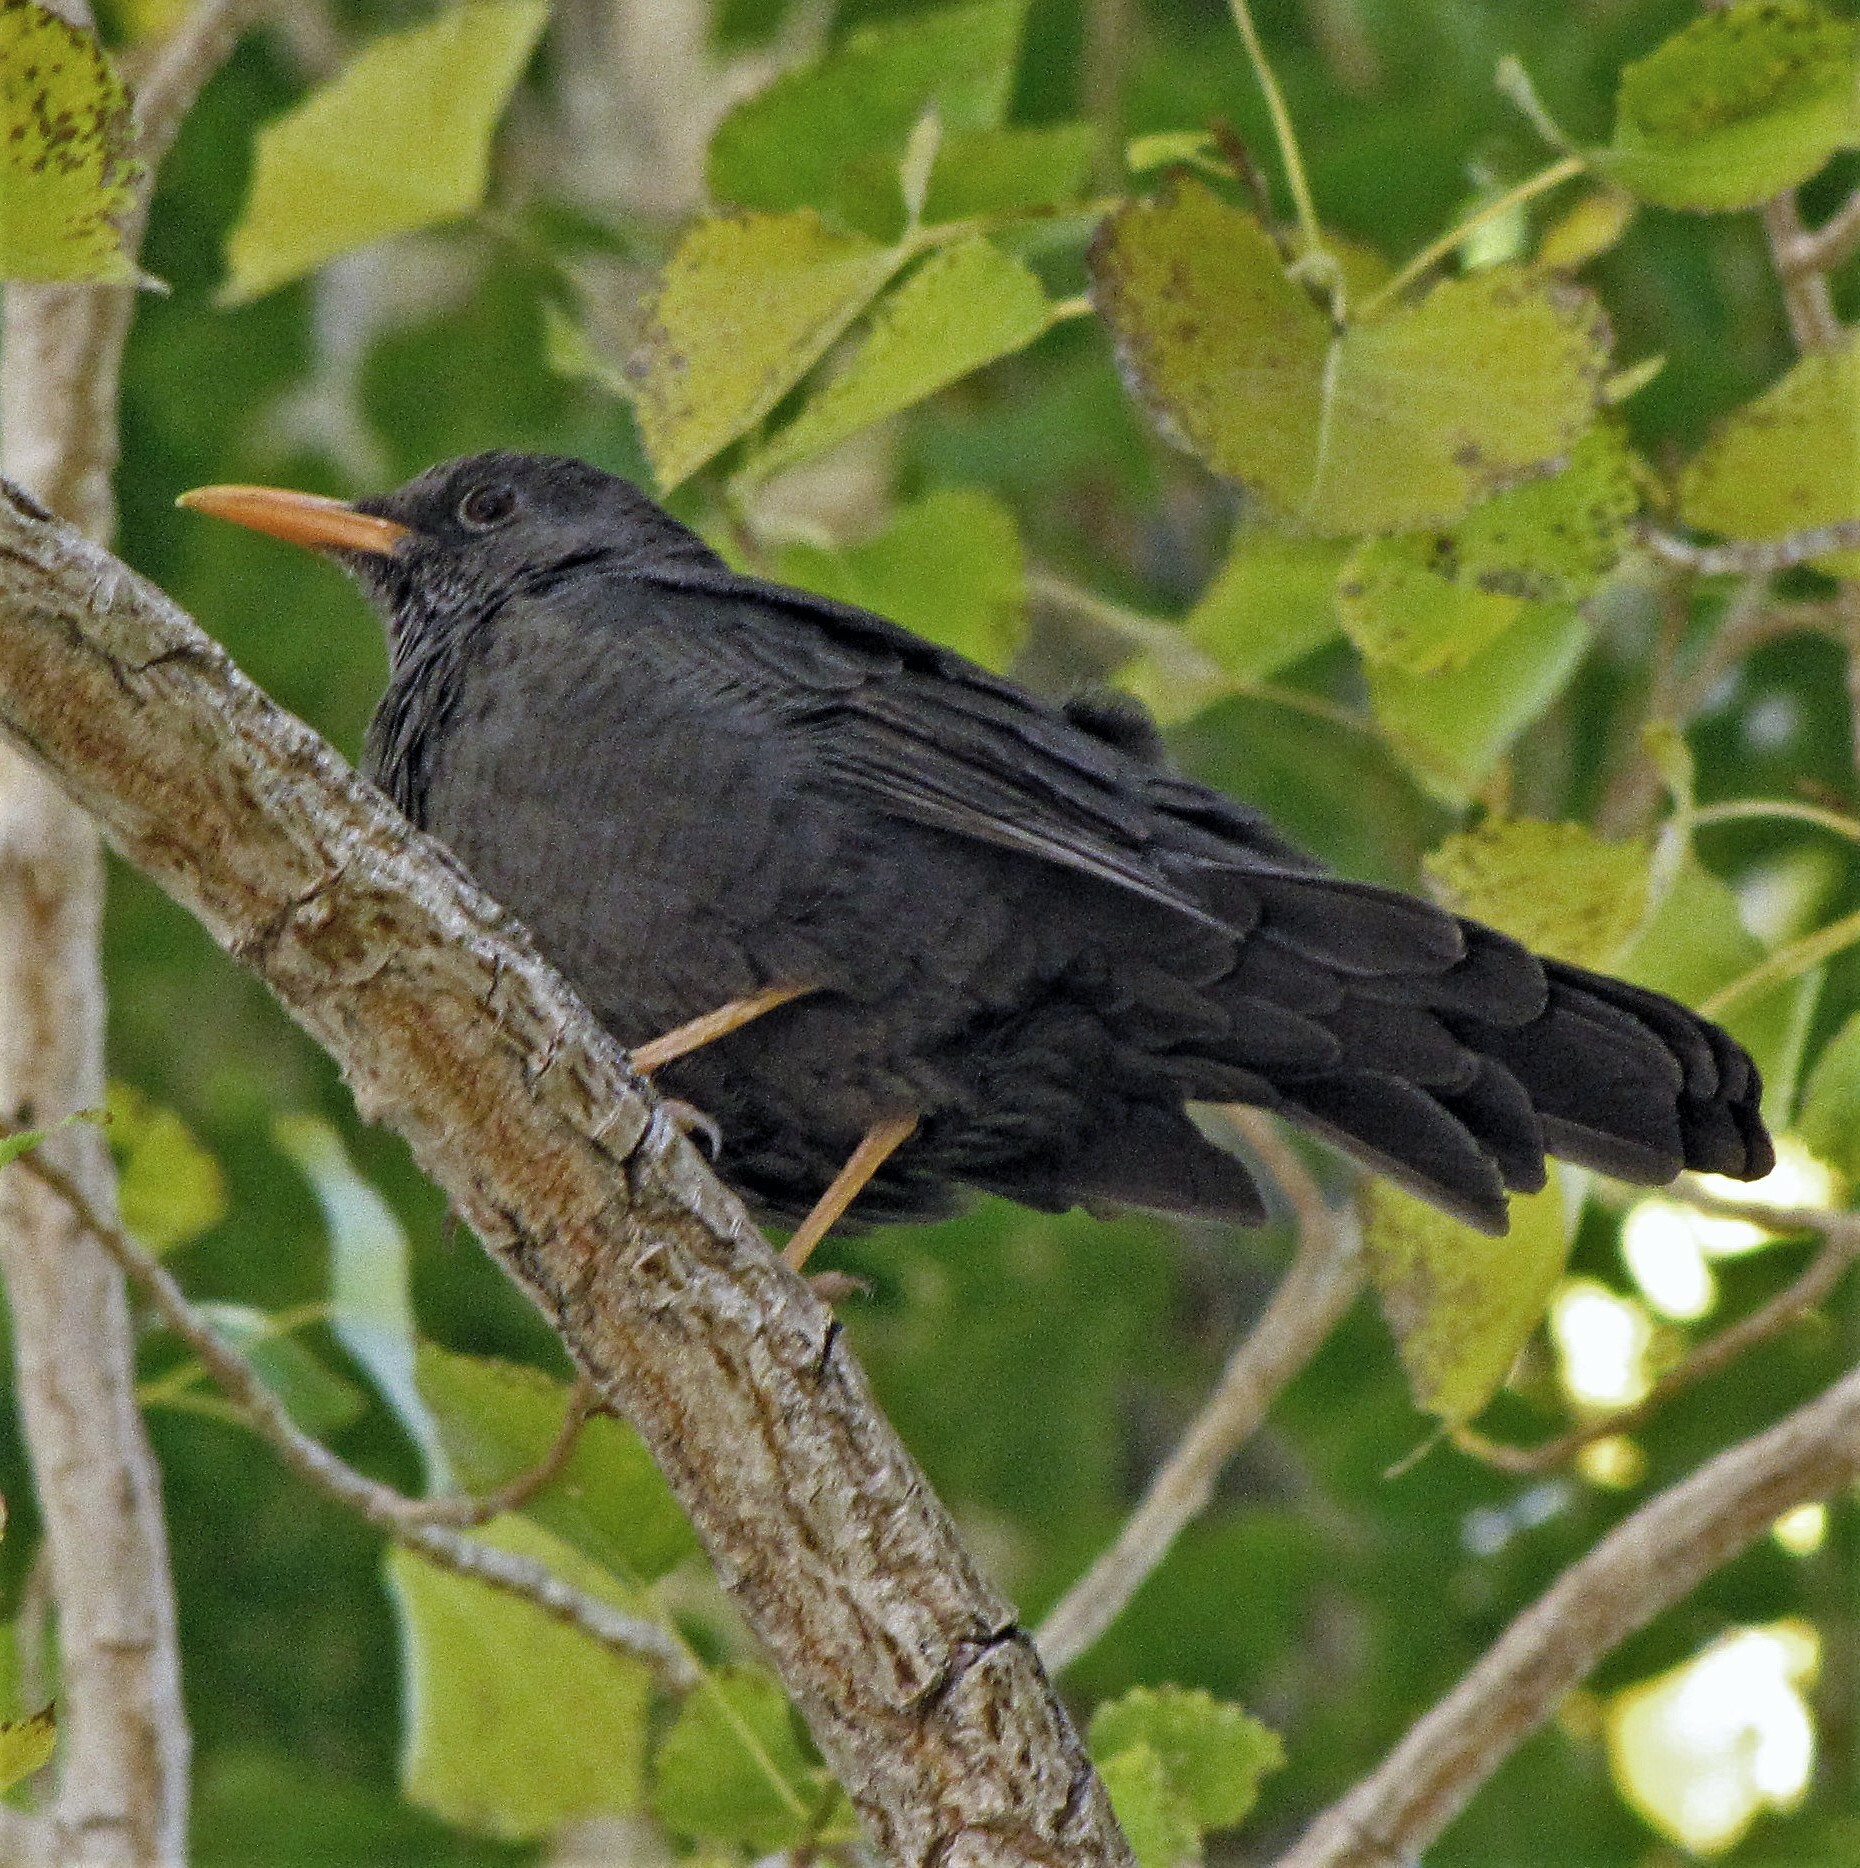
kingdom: Animalia
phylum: Chordata
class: Aves
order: Passeriformes
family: Turdidae
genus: Turdus
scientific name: Turdus chiguanco
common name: Chiguanco thrush
